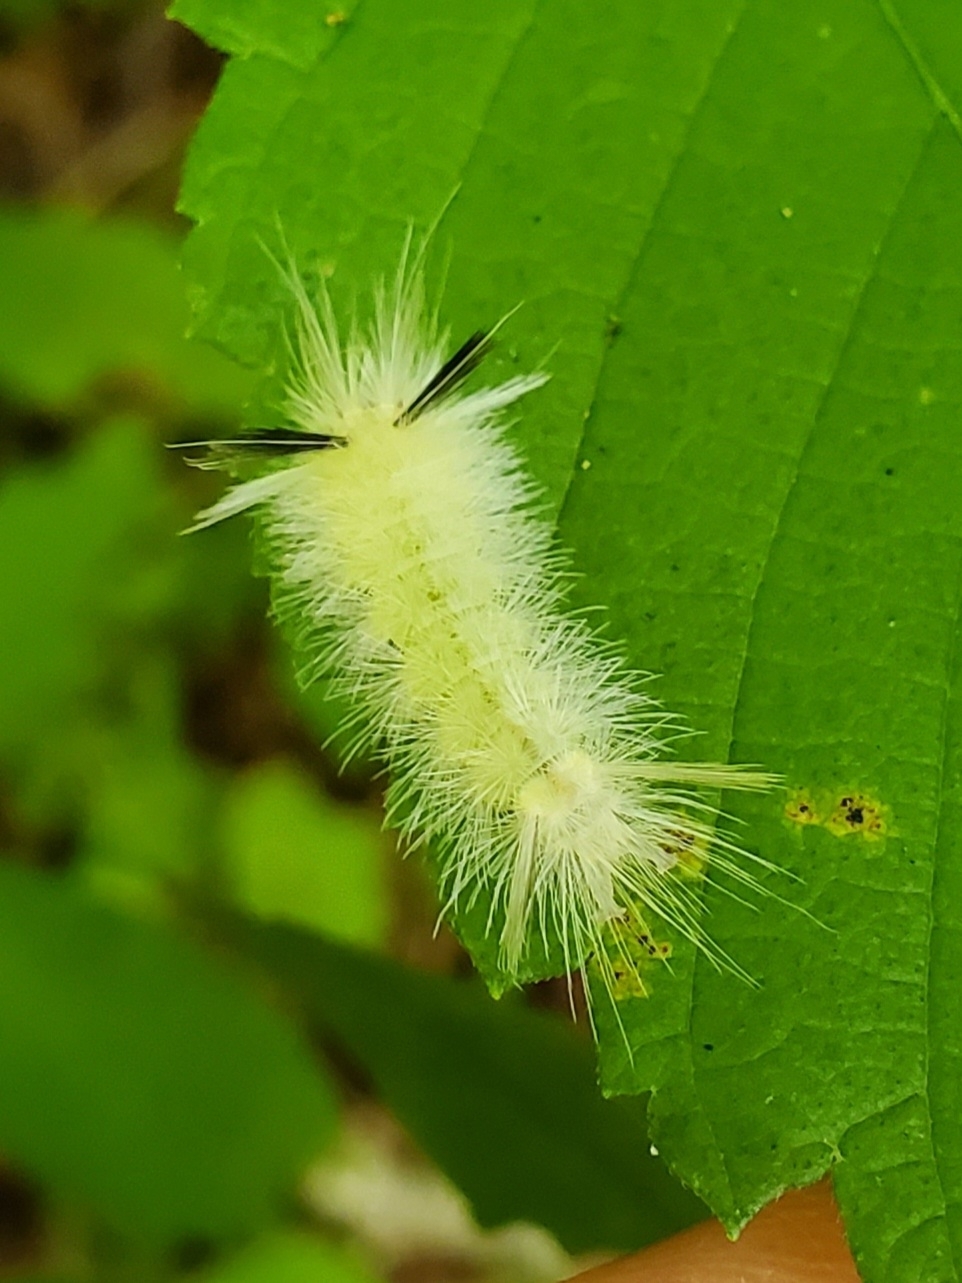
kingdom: Animalia
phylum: Arthropoda
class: Insecta
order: Lepidoptera
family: Erebidae
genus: Halysidota
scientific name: Halysidota tessellaris
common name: Banded tussock moth
